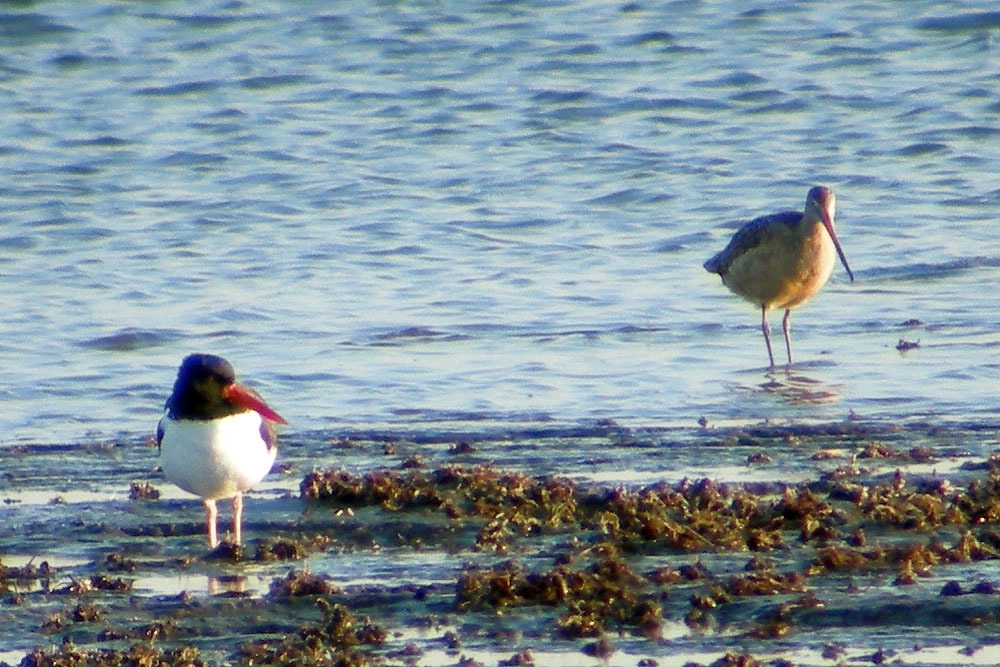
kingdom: Animalia
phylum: Chordata
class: Aves
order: Charadriiformes
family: Haematopodidae
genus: Haematopus
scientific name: Haematopus palliatus
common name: American oystercatcher
